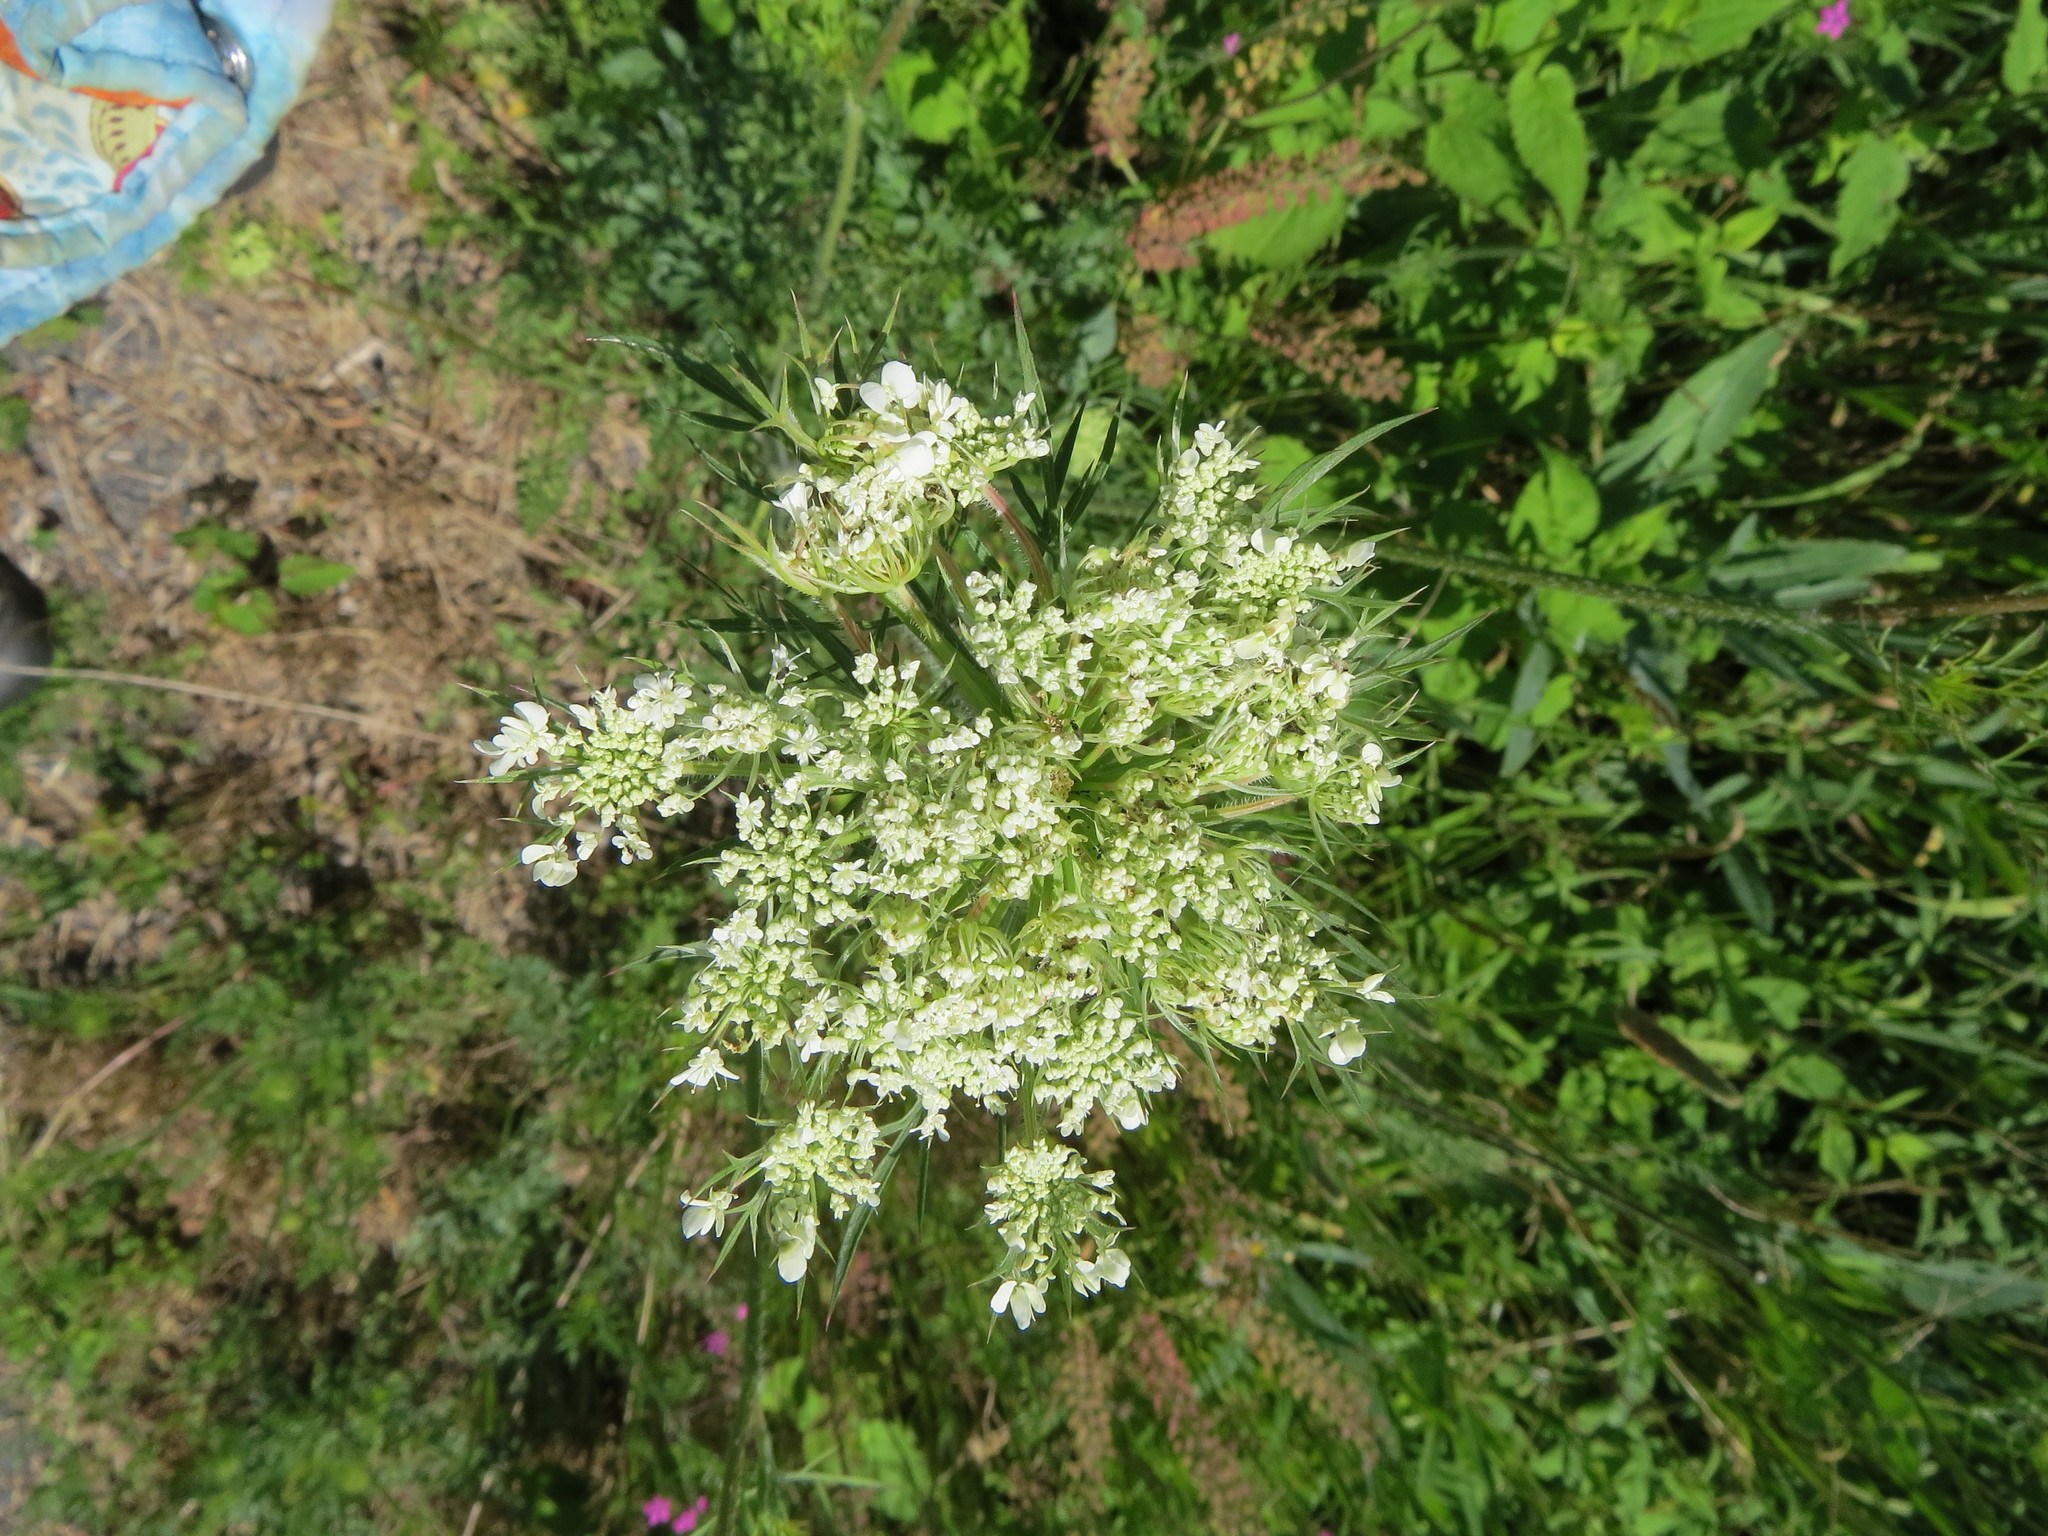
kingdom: Plantae
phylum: Tracheophyta
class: Magnoliopsida
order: Apiales
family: Apiaceae
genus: Daucus
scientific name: Daucus carota
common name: Wild carrot
